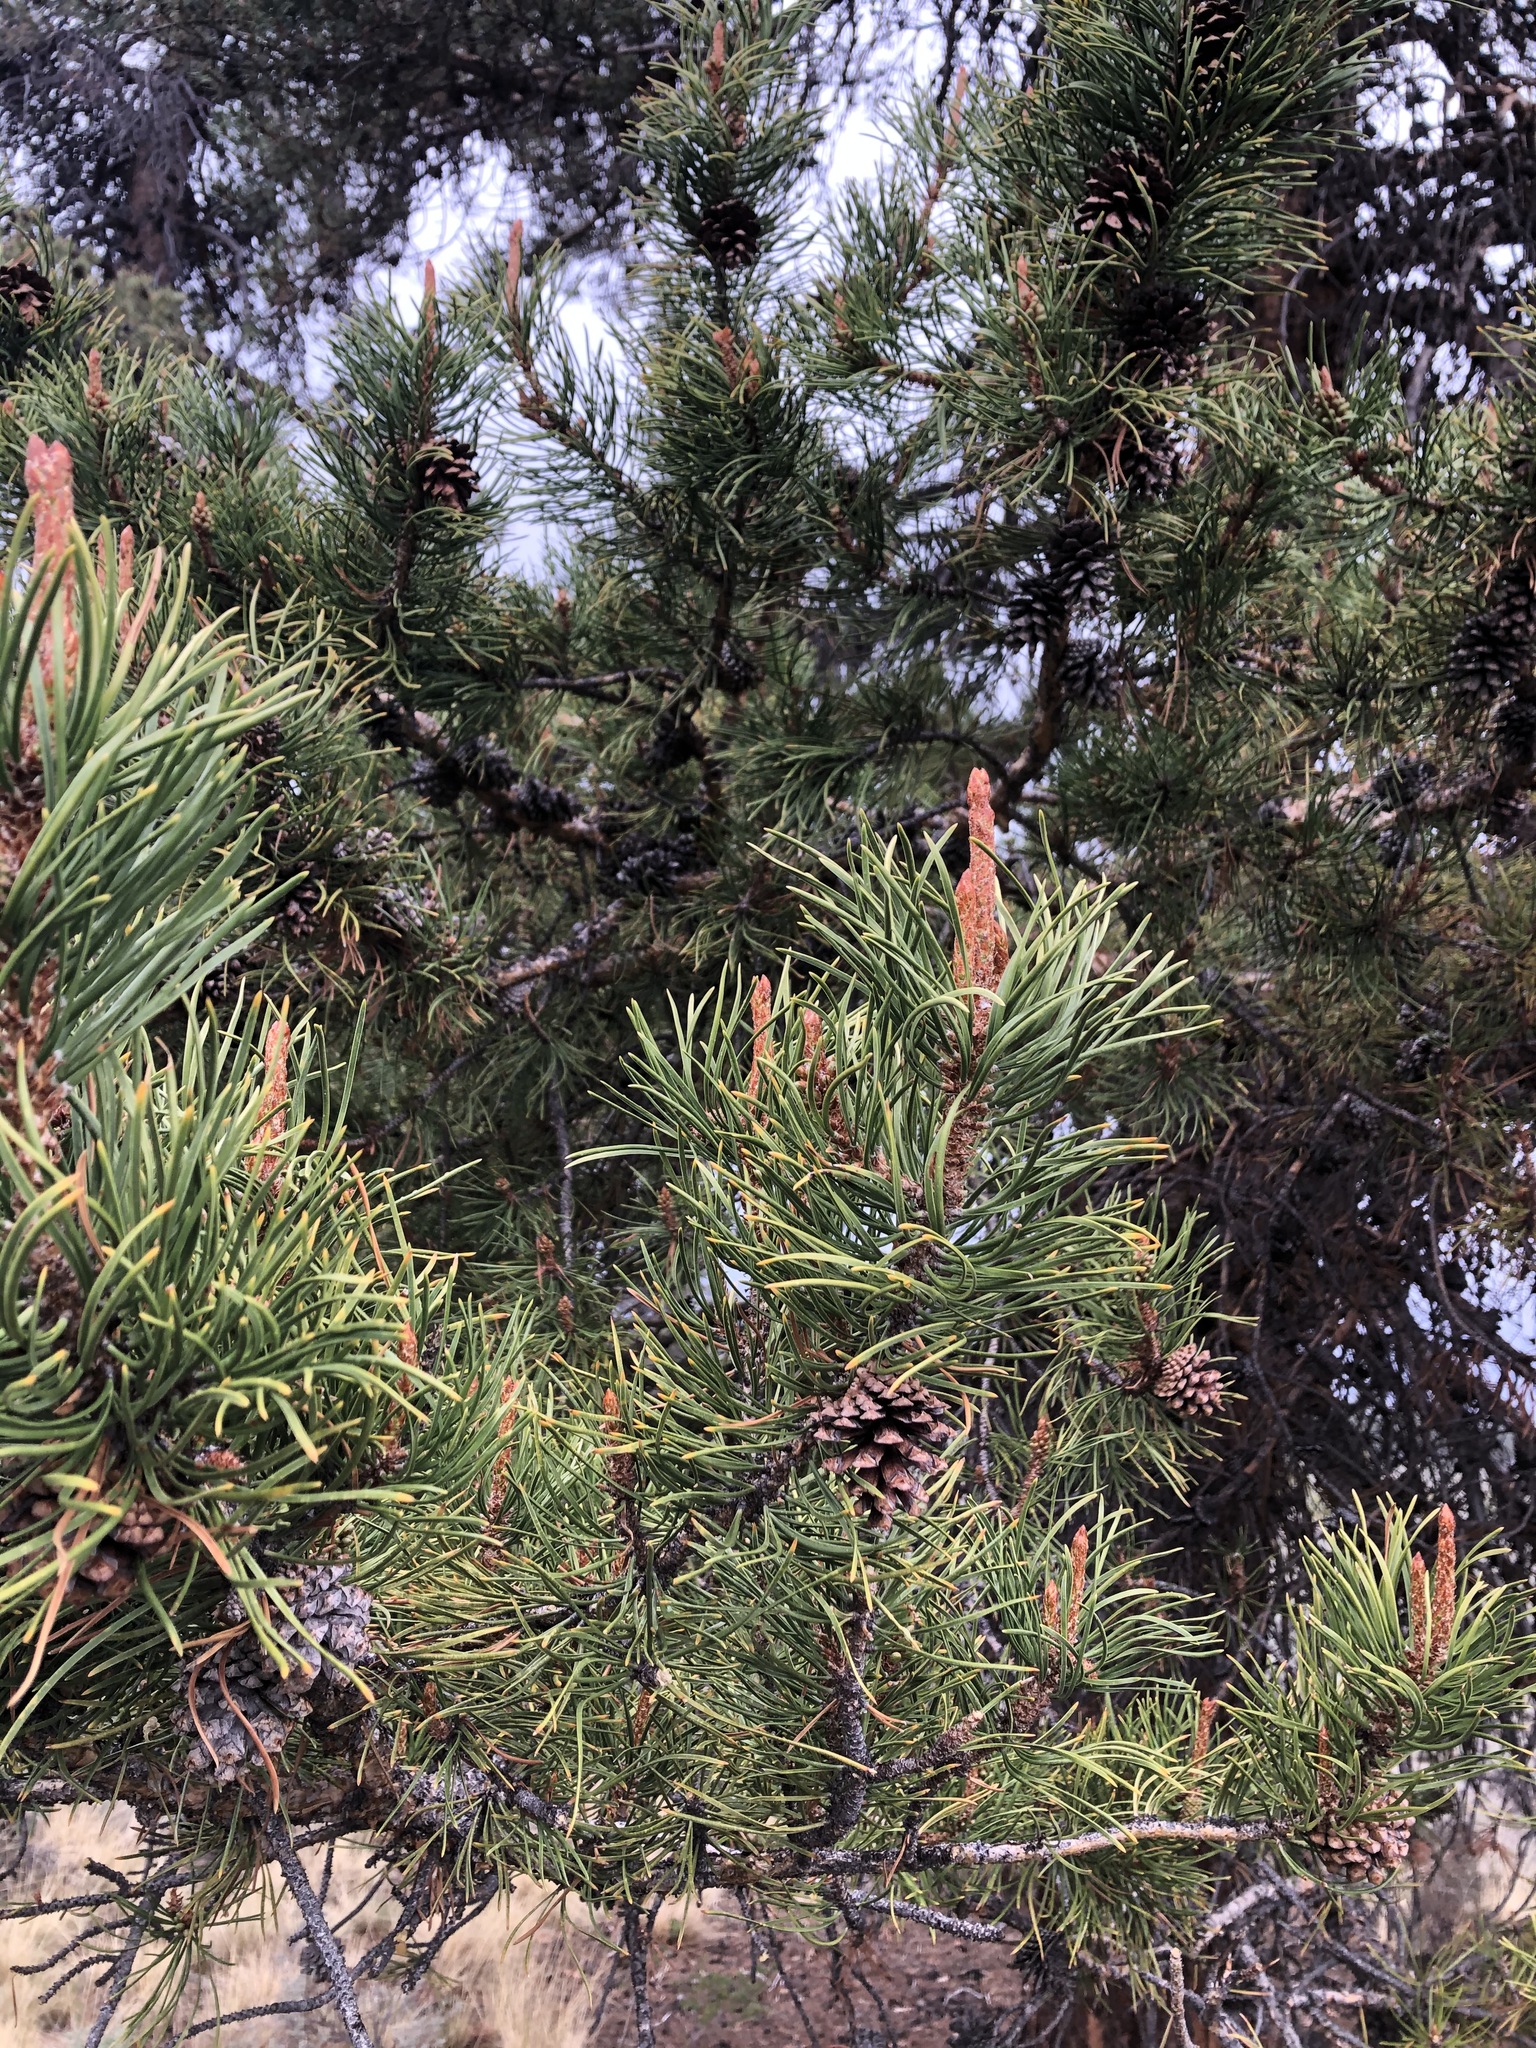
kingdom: Plantae
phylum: Tracheophyta
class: Pinopsida
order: Pinales
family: Pinaceae
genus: Pinus
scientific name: Pinus contorta
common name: Lodgepole pine
